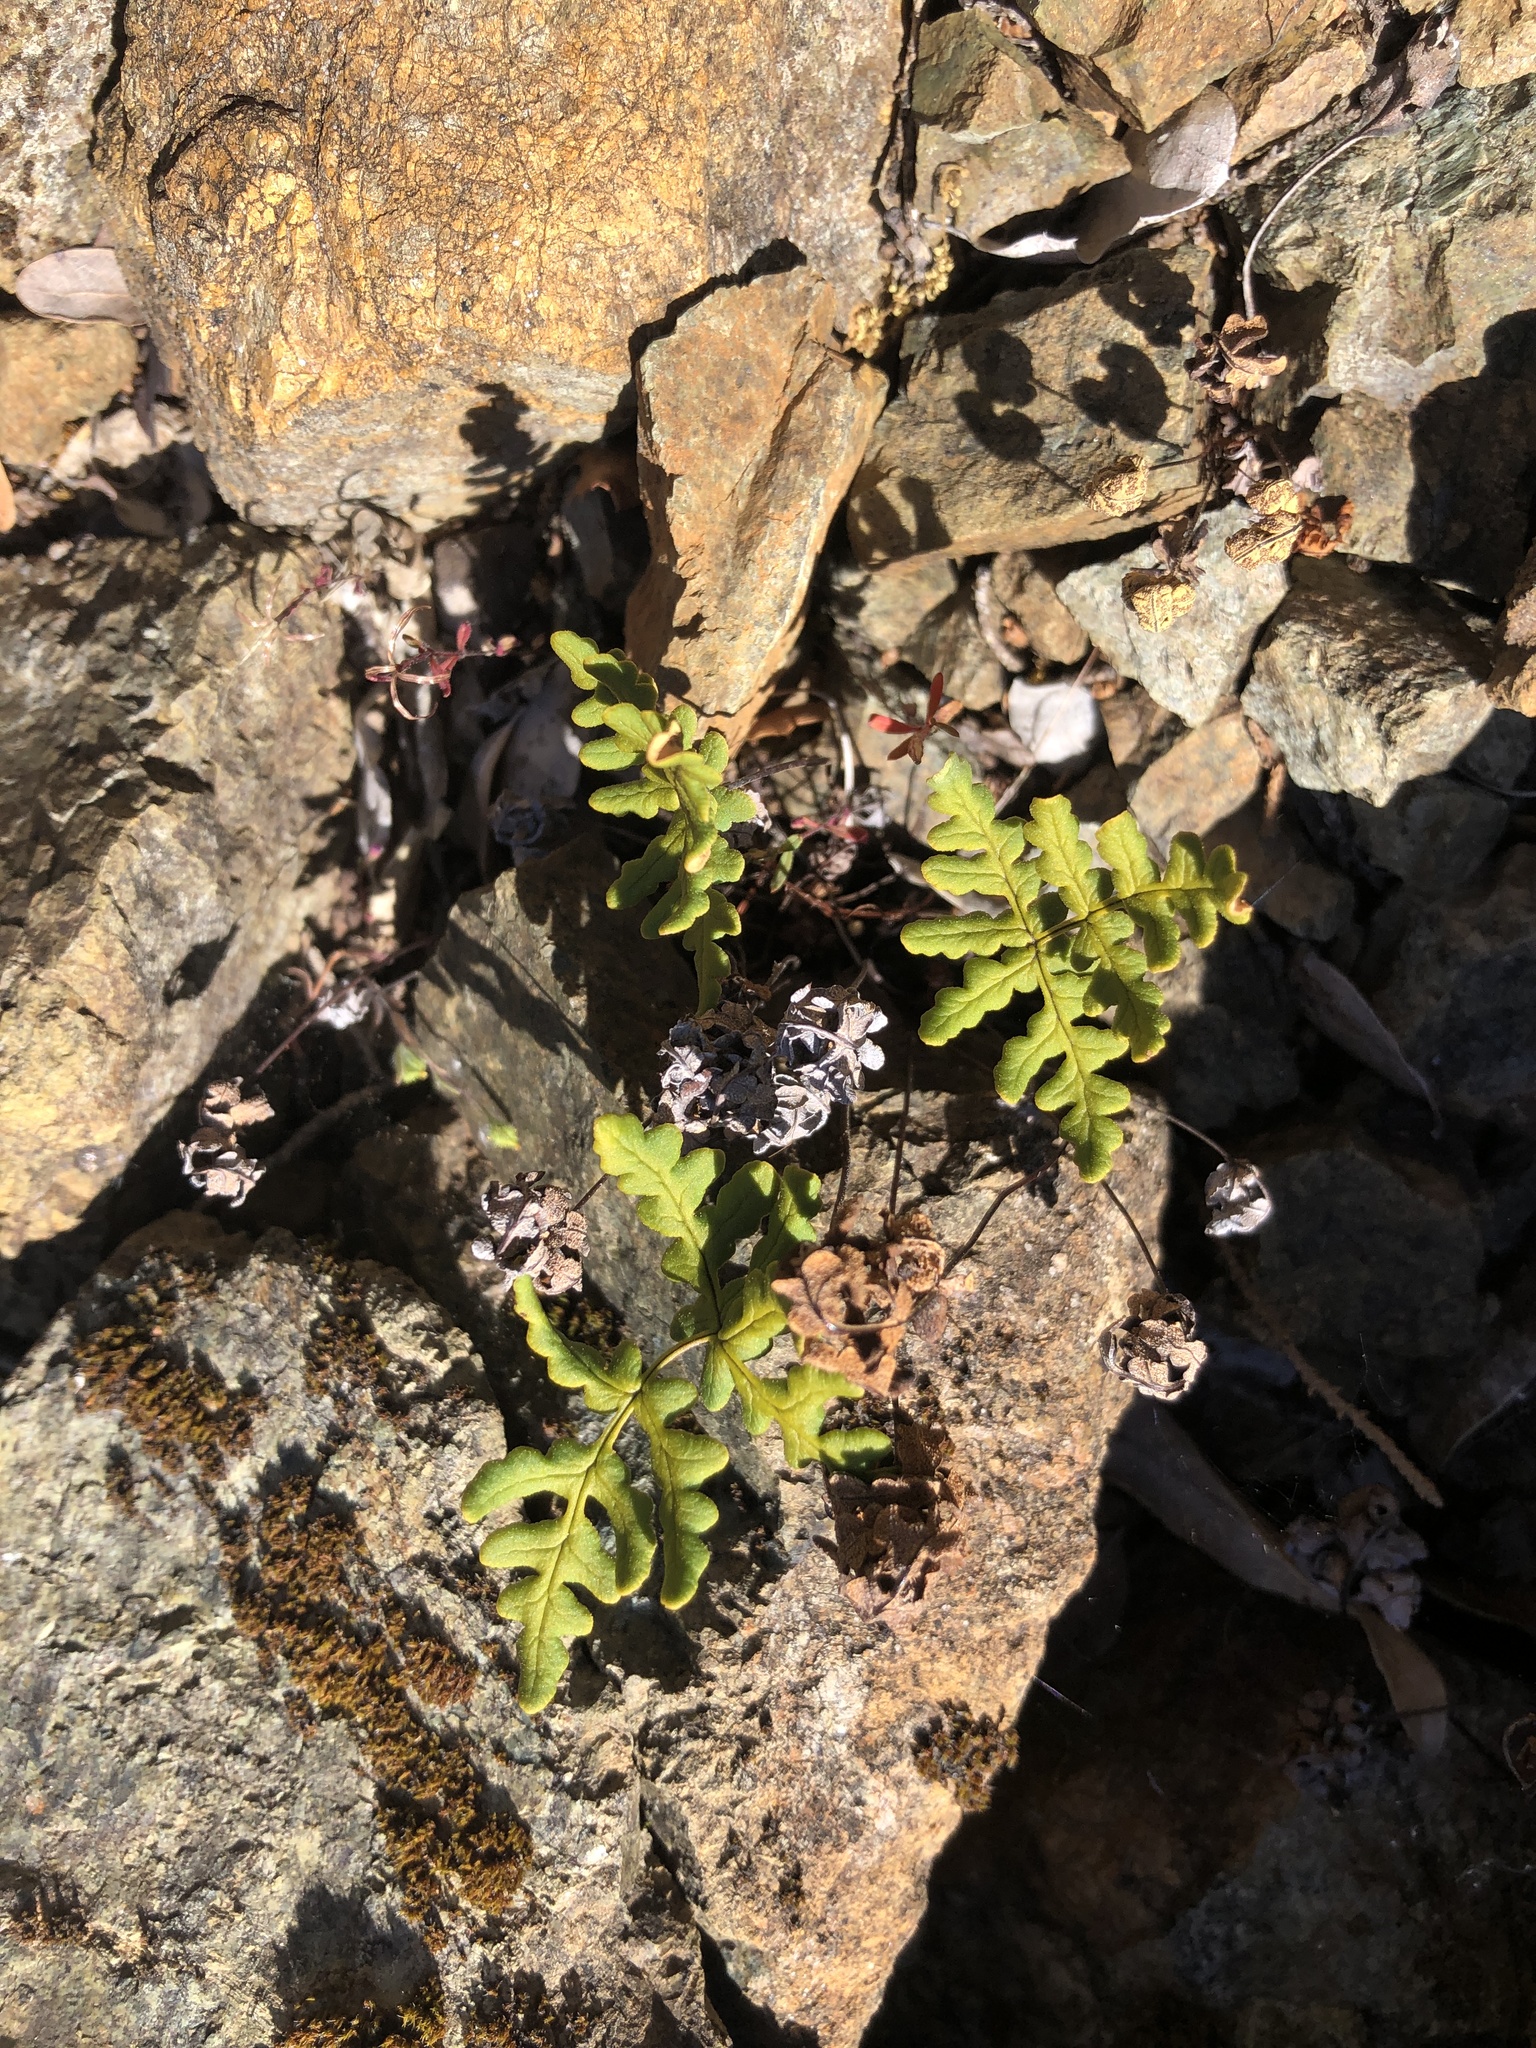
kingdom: Plantae
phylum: Tracheophyta
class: Polypodiopsida
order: Polypodiales
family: Pteridaceae
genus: Pentagramma
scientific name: Pentagramma triangularis
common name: Gold fern
